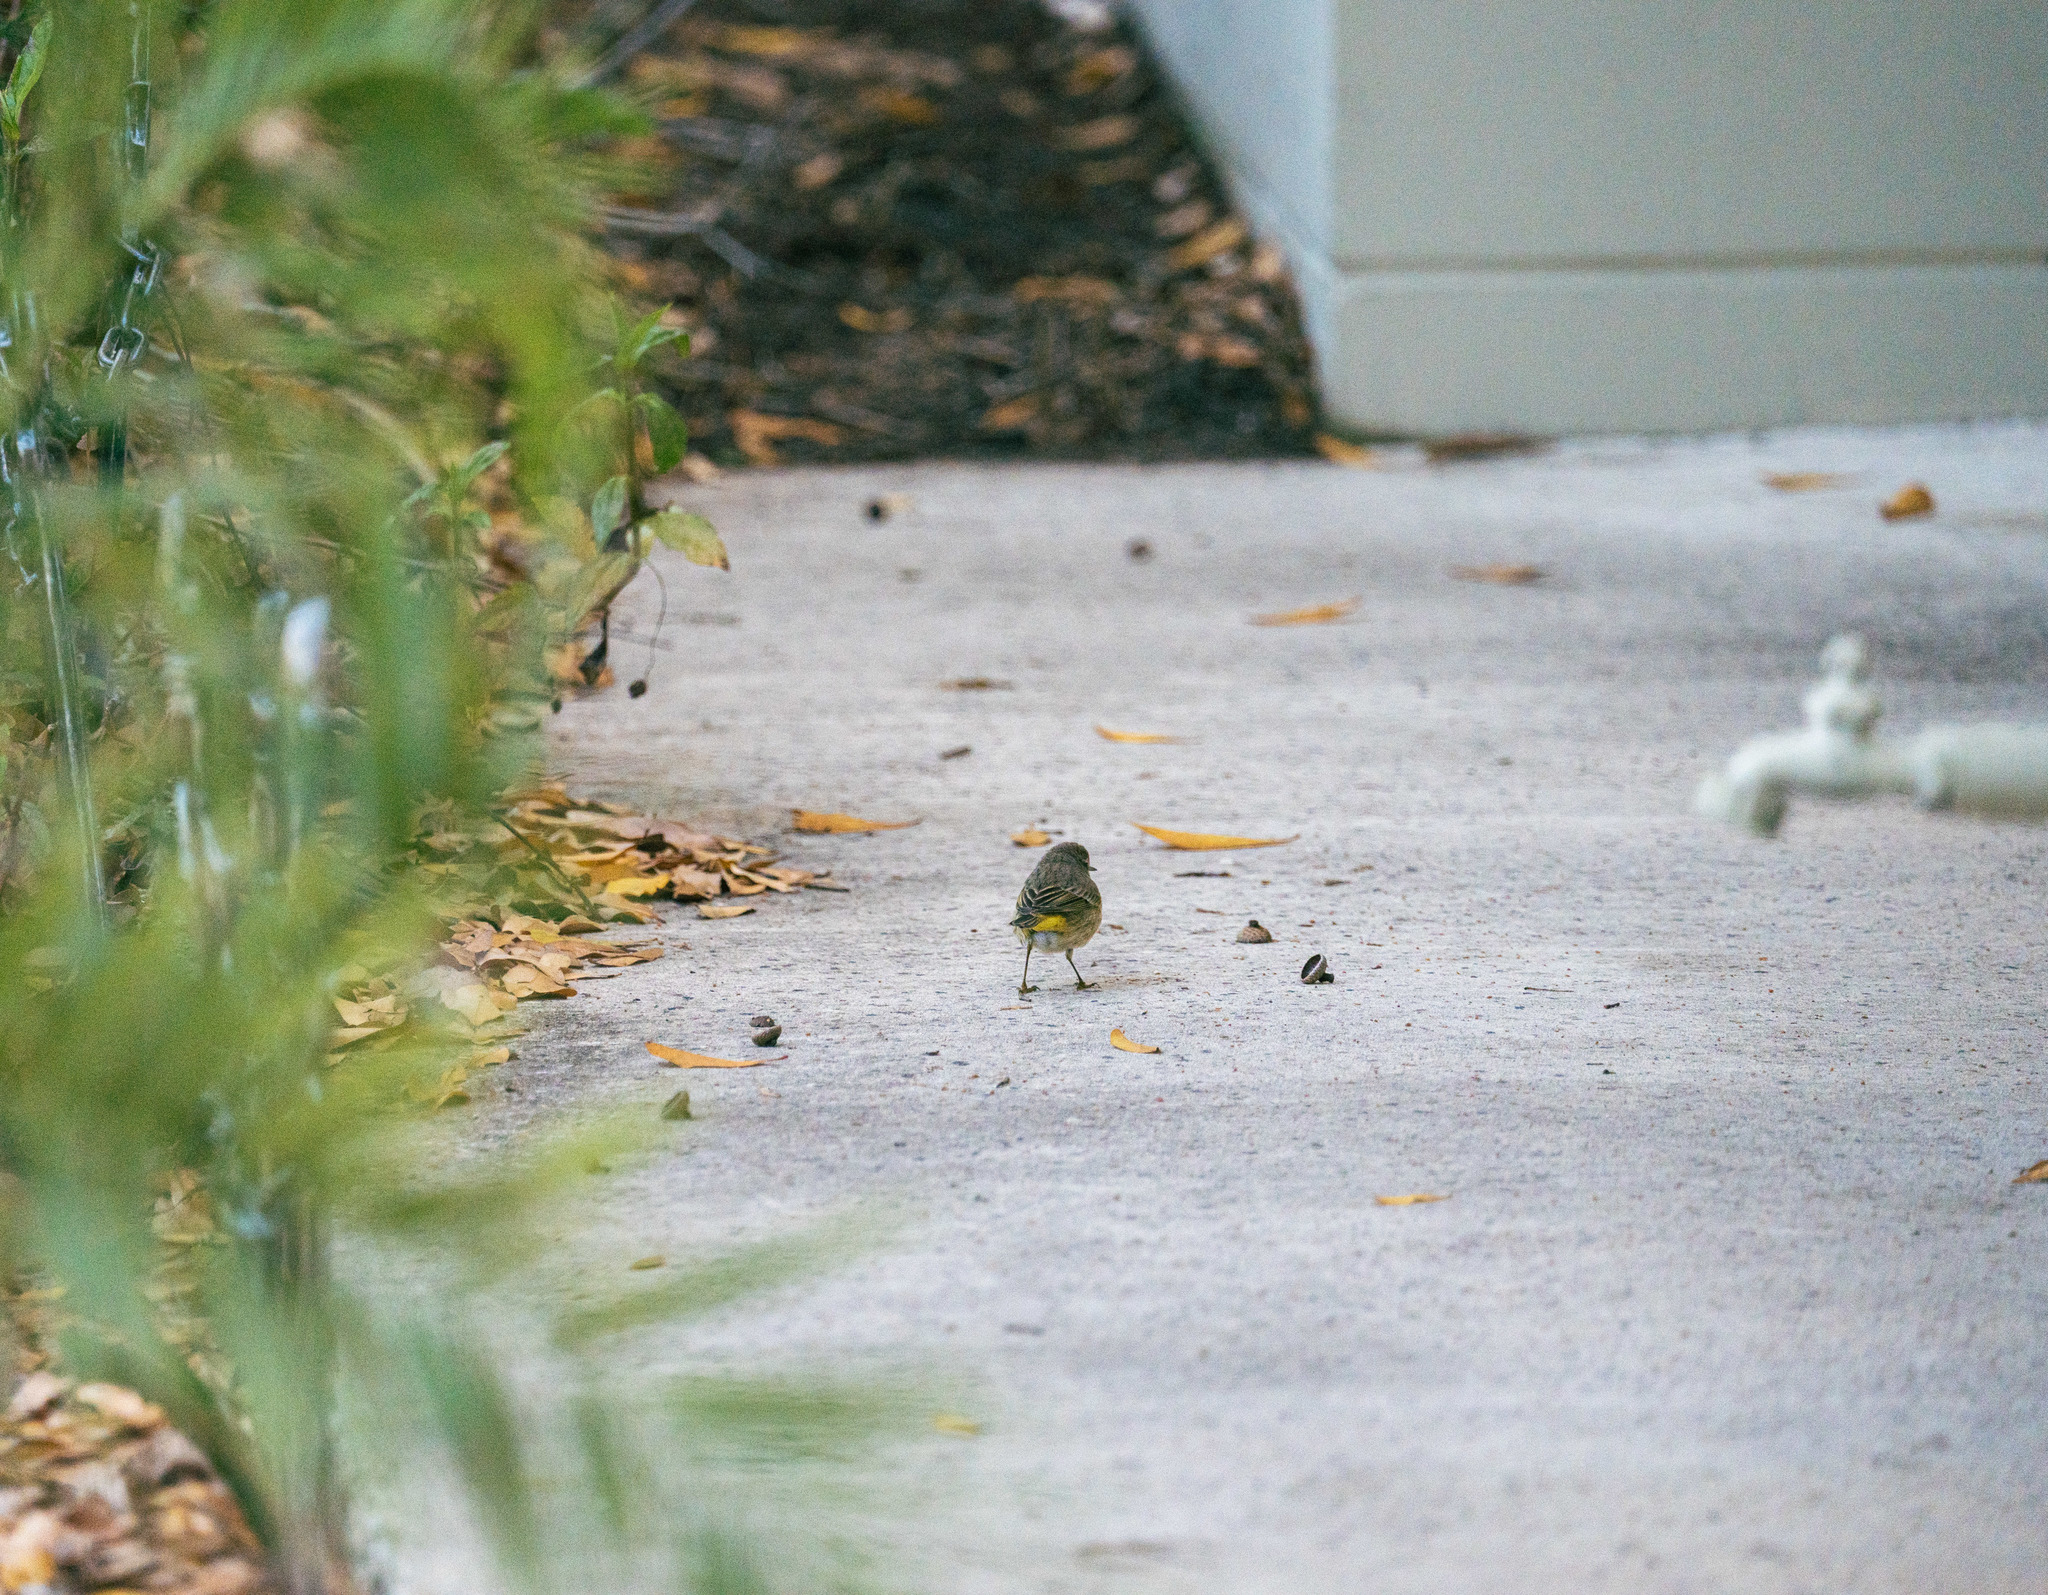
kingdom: Animalia
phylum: Chordata
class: Aves
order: Passeriformes
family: Parulidae
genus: Setophaga
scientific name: Setophaga palmarum
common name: Palm warbler
